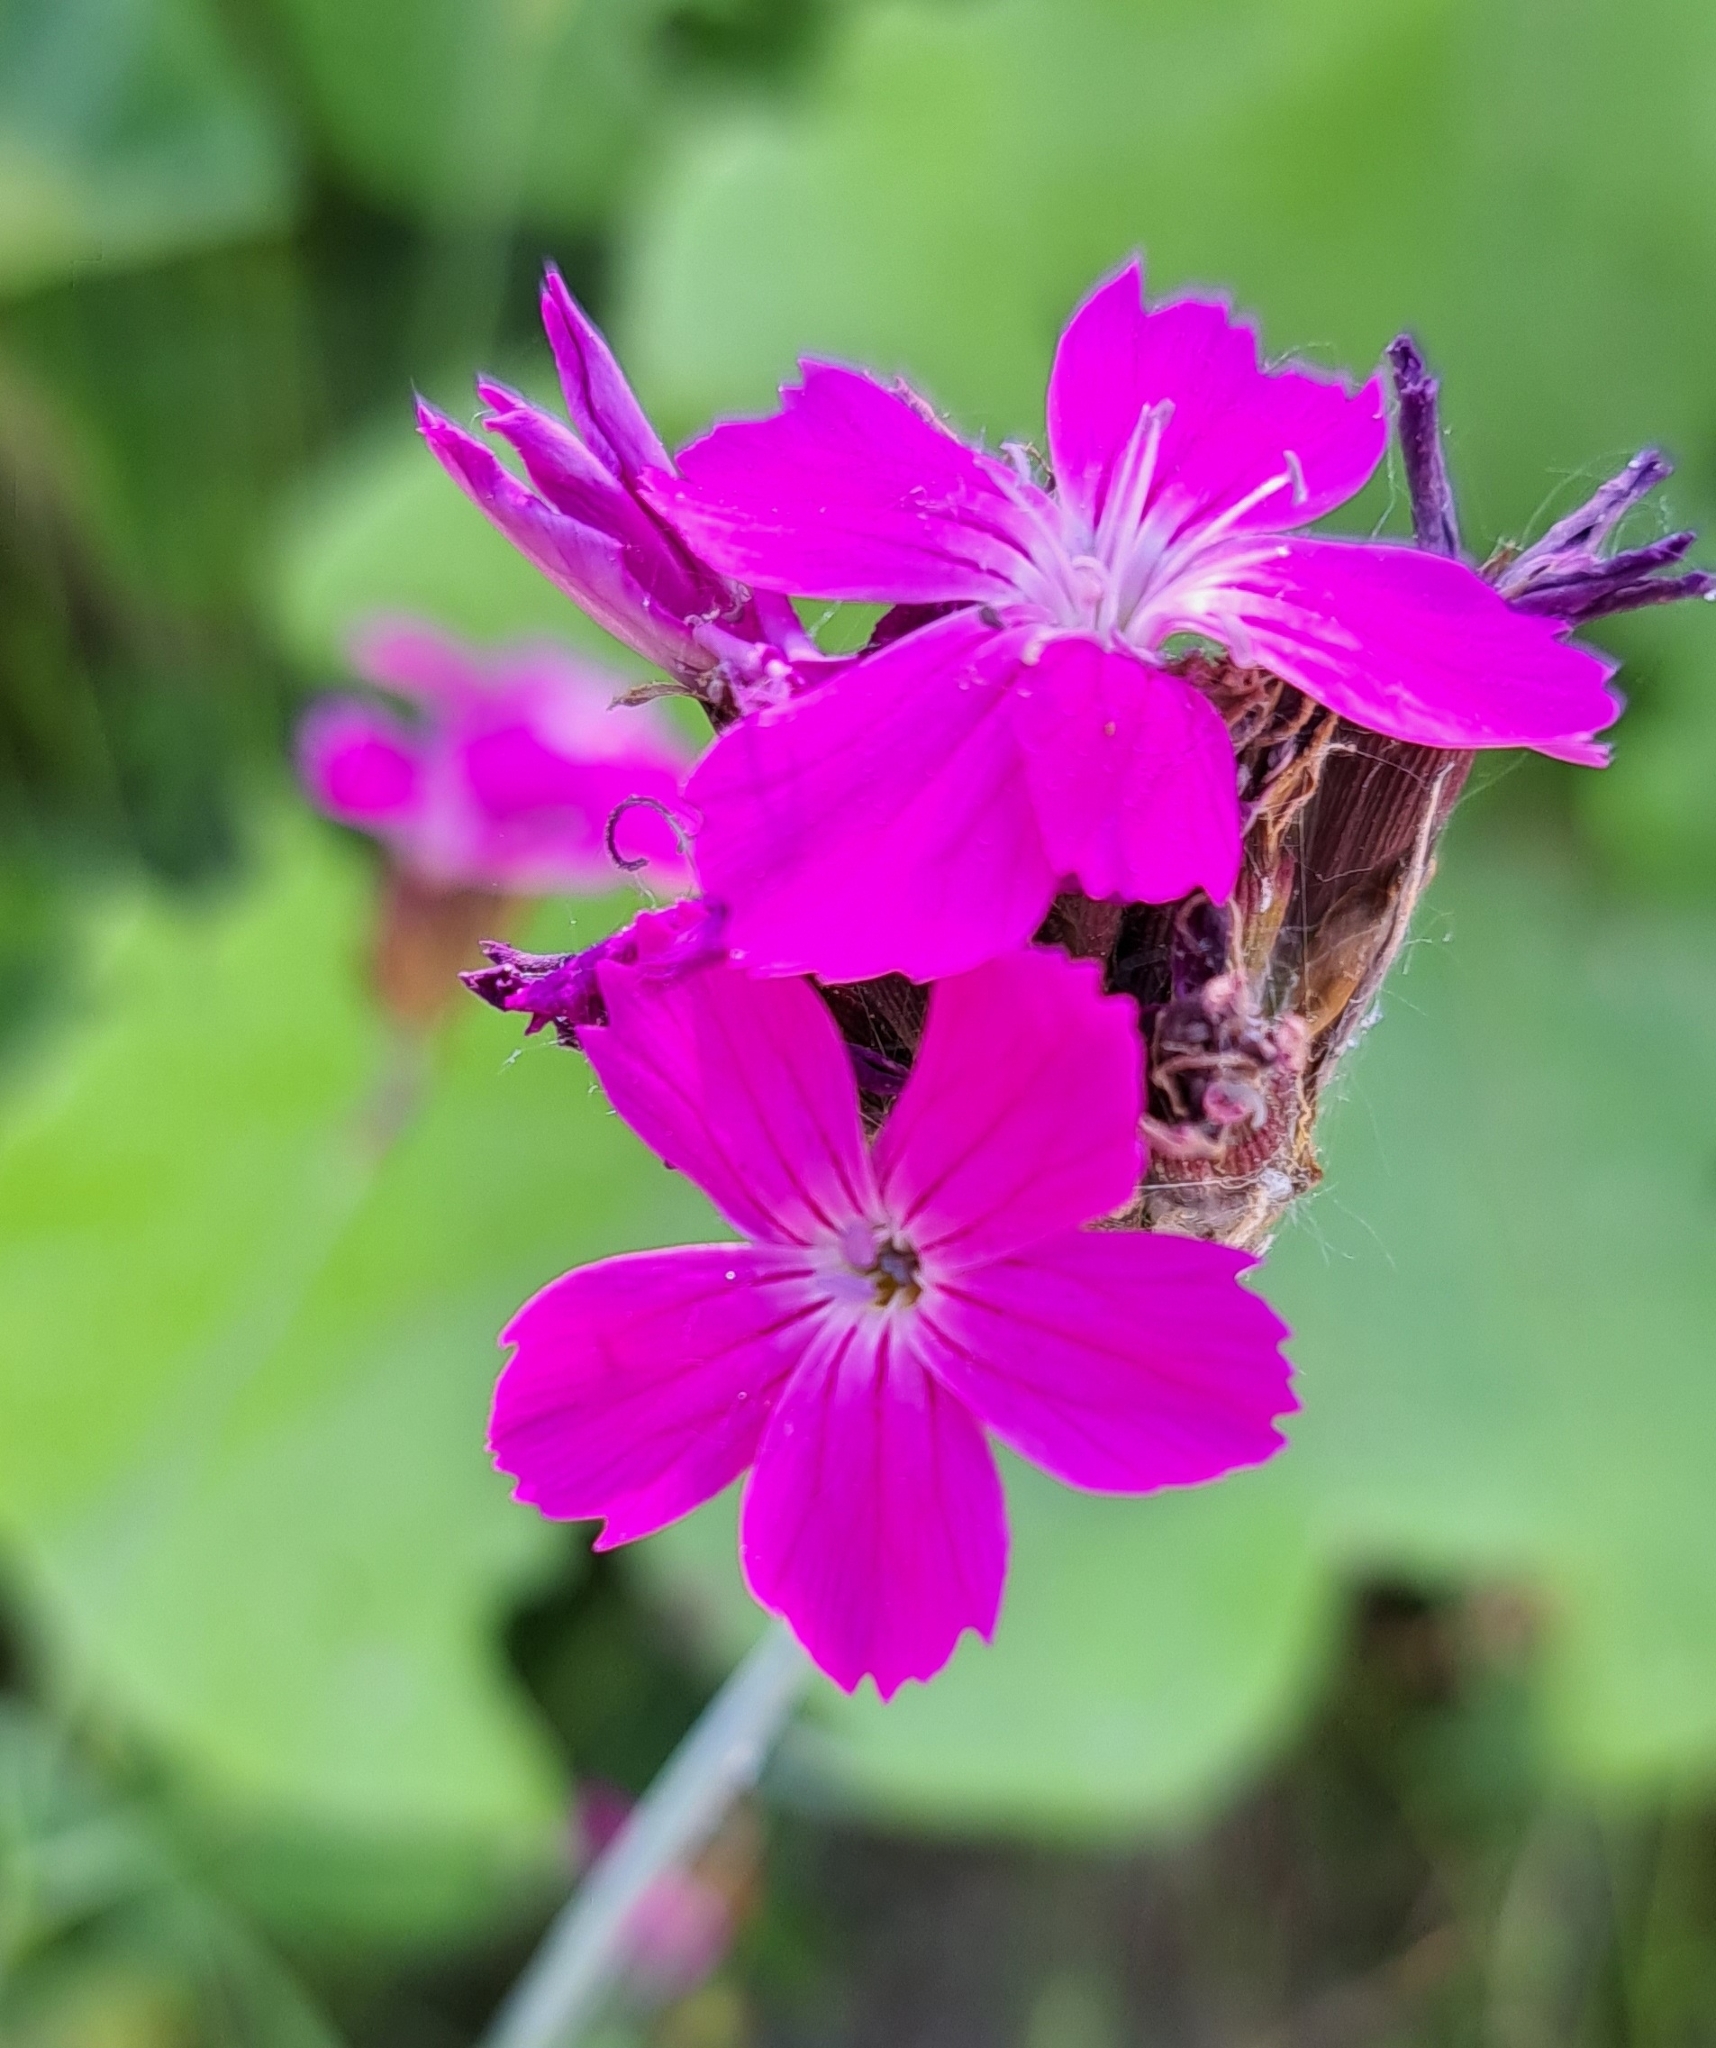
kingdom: Plantae
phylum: Tracheophyta
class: Magnoliopsida
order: Caryophyllales
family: Caryophyllaceae
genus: Dianthus
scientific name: Dianthus carthusianorum
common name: Carthusian pink
